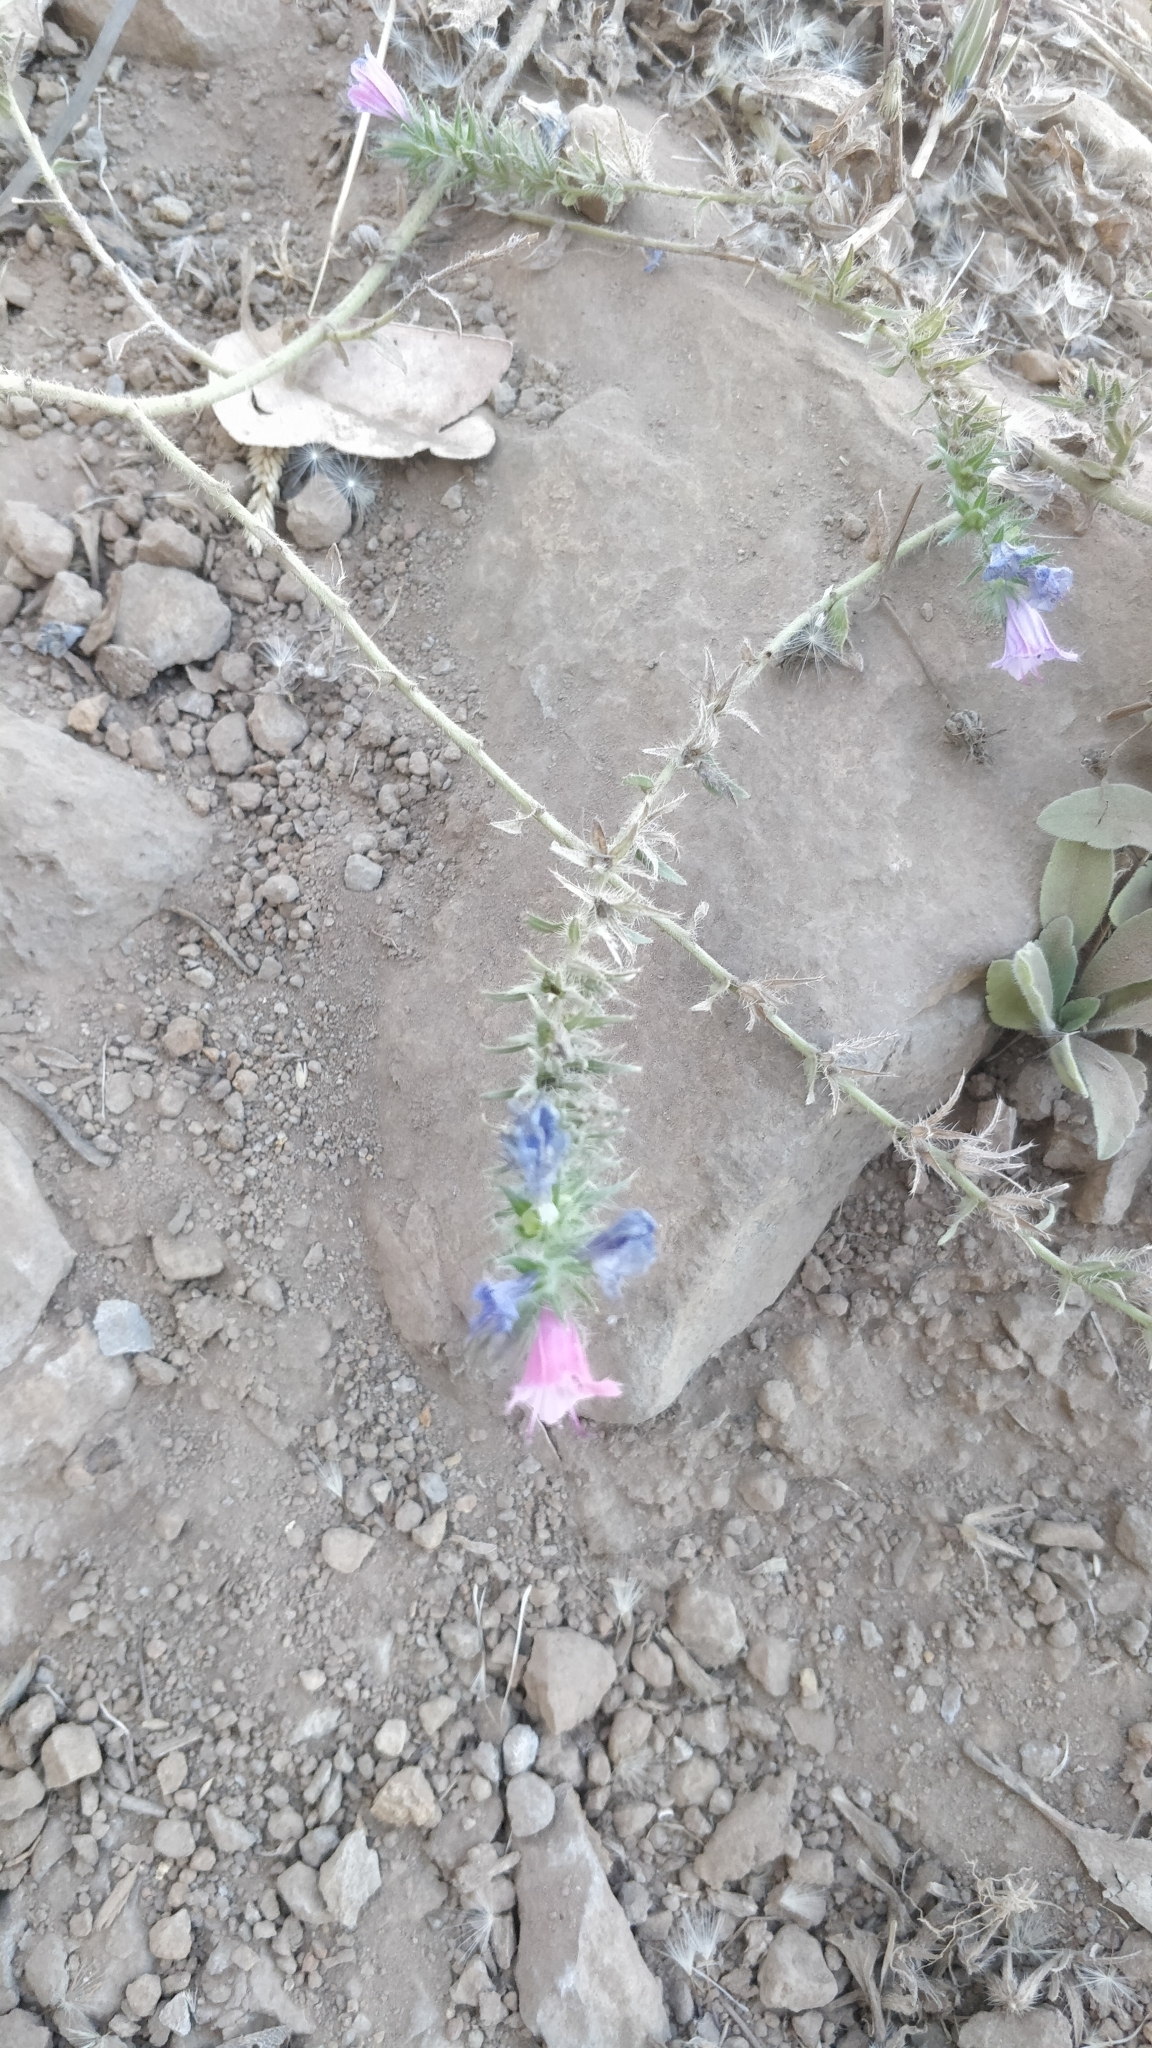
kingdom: Plantae
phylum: Tracheophyta
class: Magnoliopsida
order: Boraginales
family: Boraginaceae
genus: Echium
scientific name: Echium plantagineum
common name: Purple viper's-bugloss
